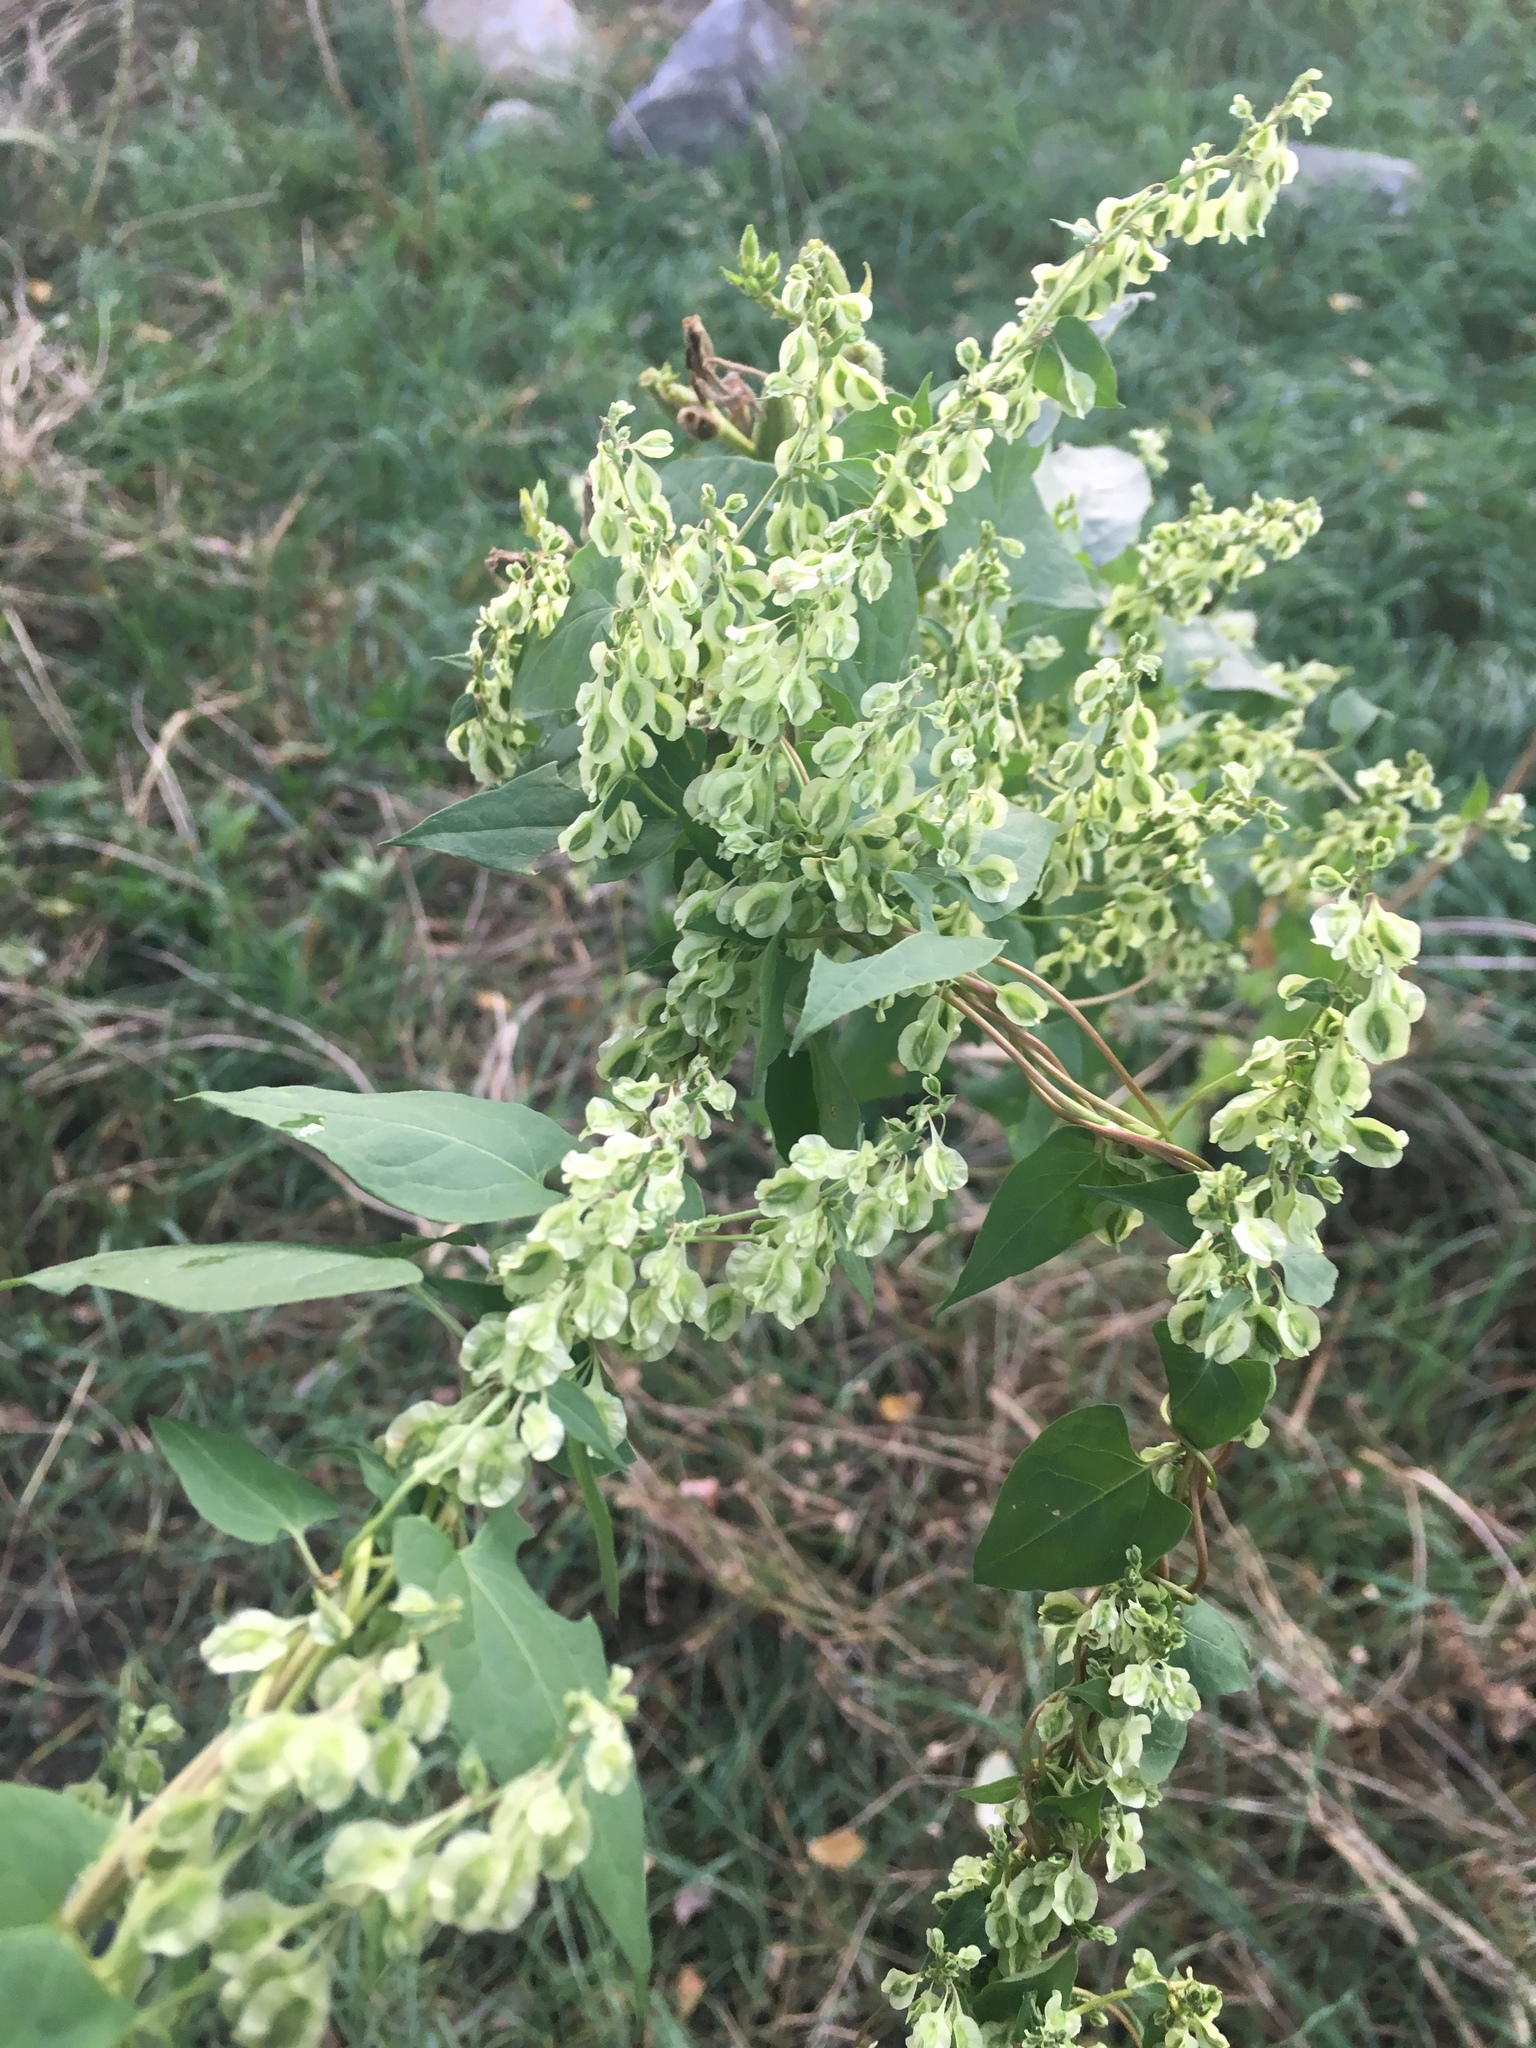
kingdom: Plantae
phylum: Tracheophyta
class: Magnoliopsida
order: Caryophyllales
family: Polygonaceae
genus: Fallopia
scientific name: Fallopia scandens
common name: Climbing false buckwheat
